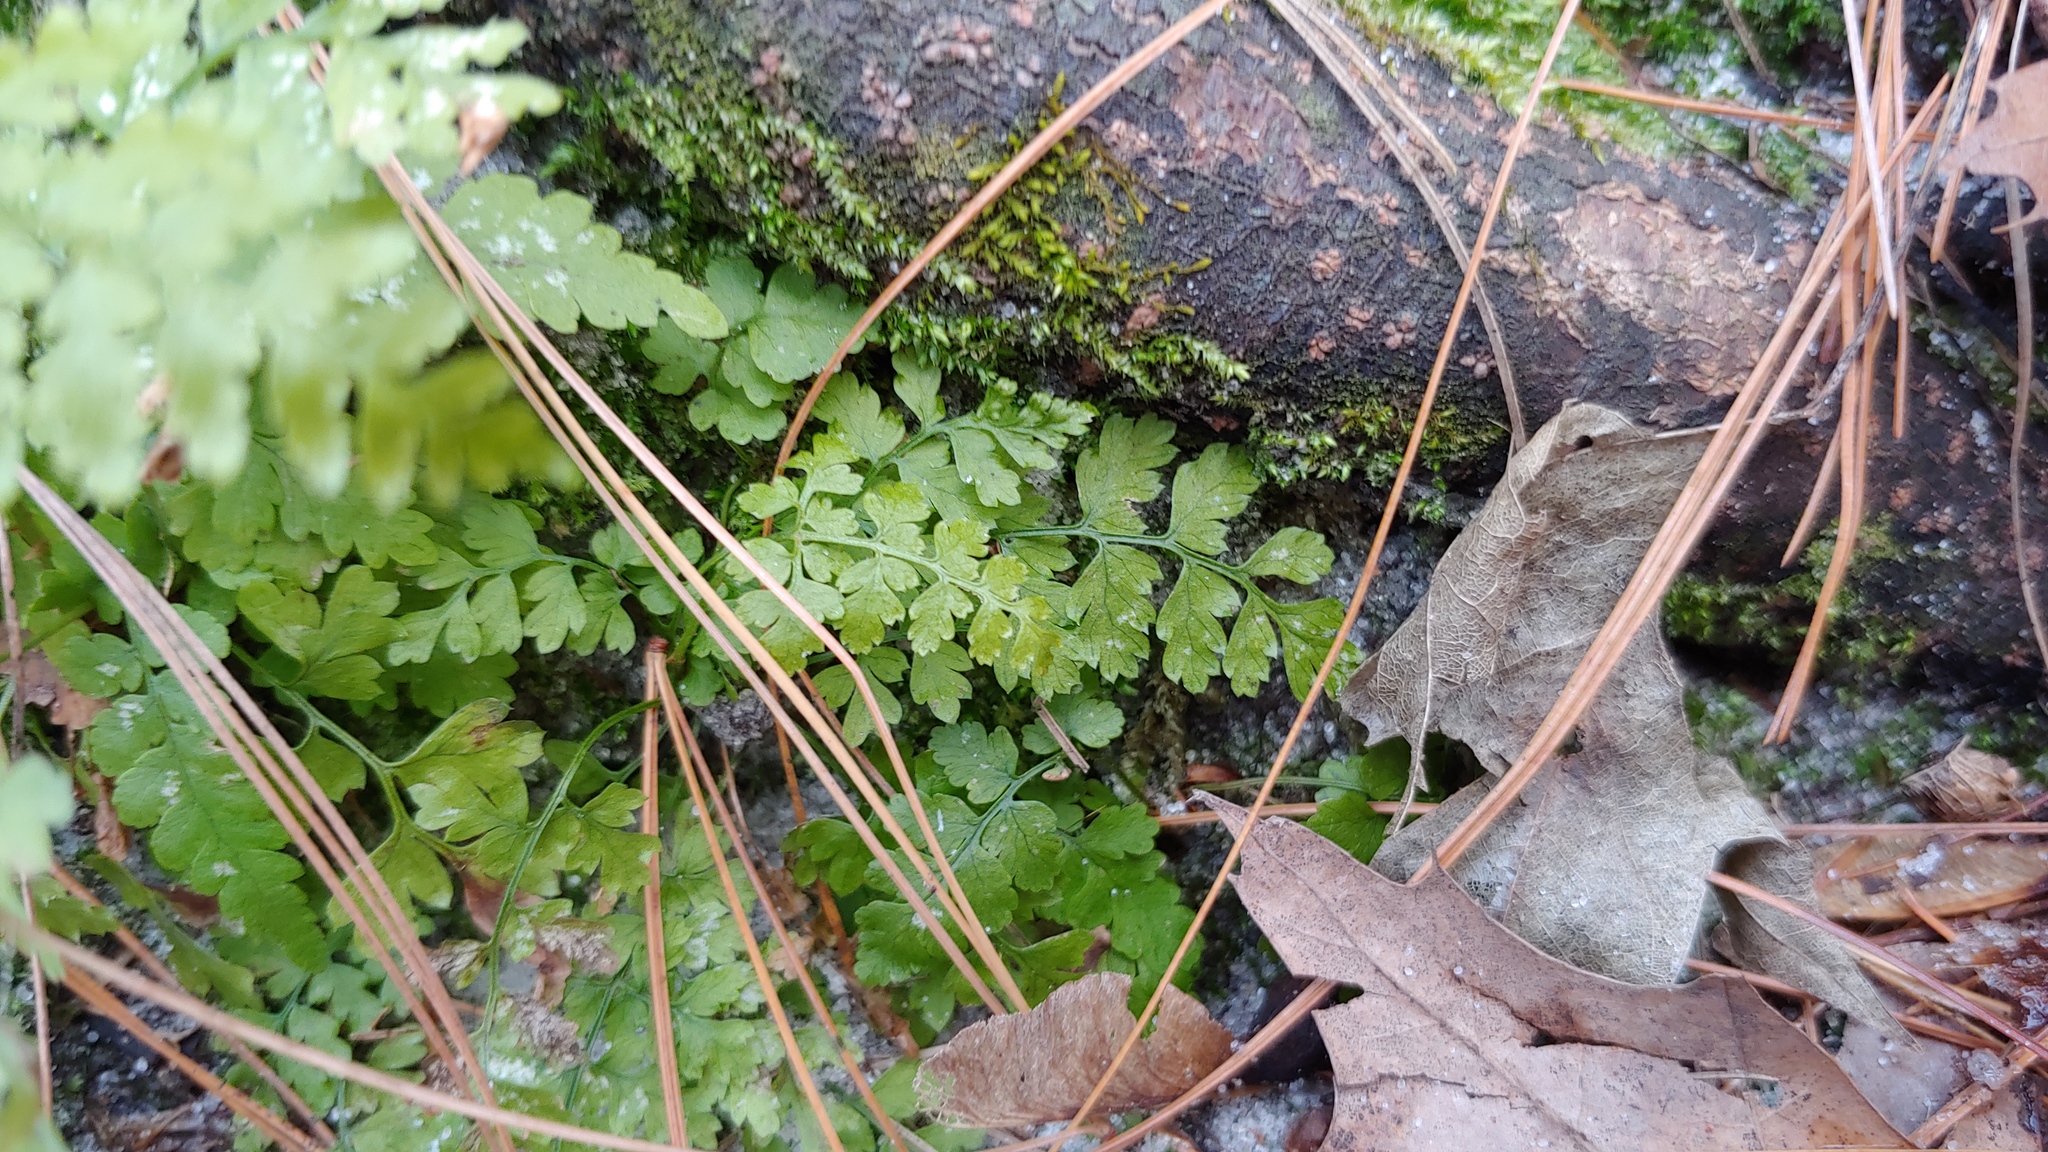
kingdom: Plantae
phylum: Tracheophyta
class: Polypodiopsida
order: Polypodiales
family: Dryopteridaceae
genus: Dryopteris
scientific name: Dryopteris intermedia
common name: Evergreen wood fern
